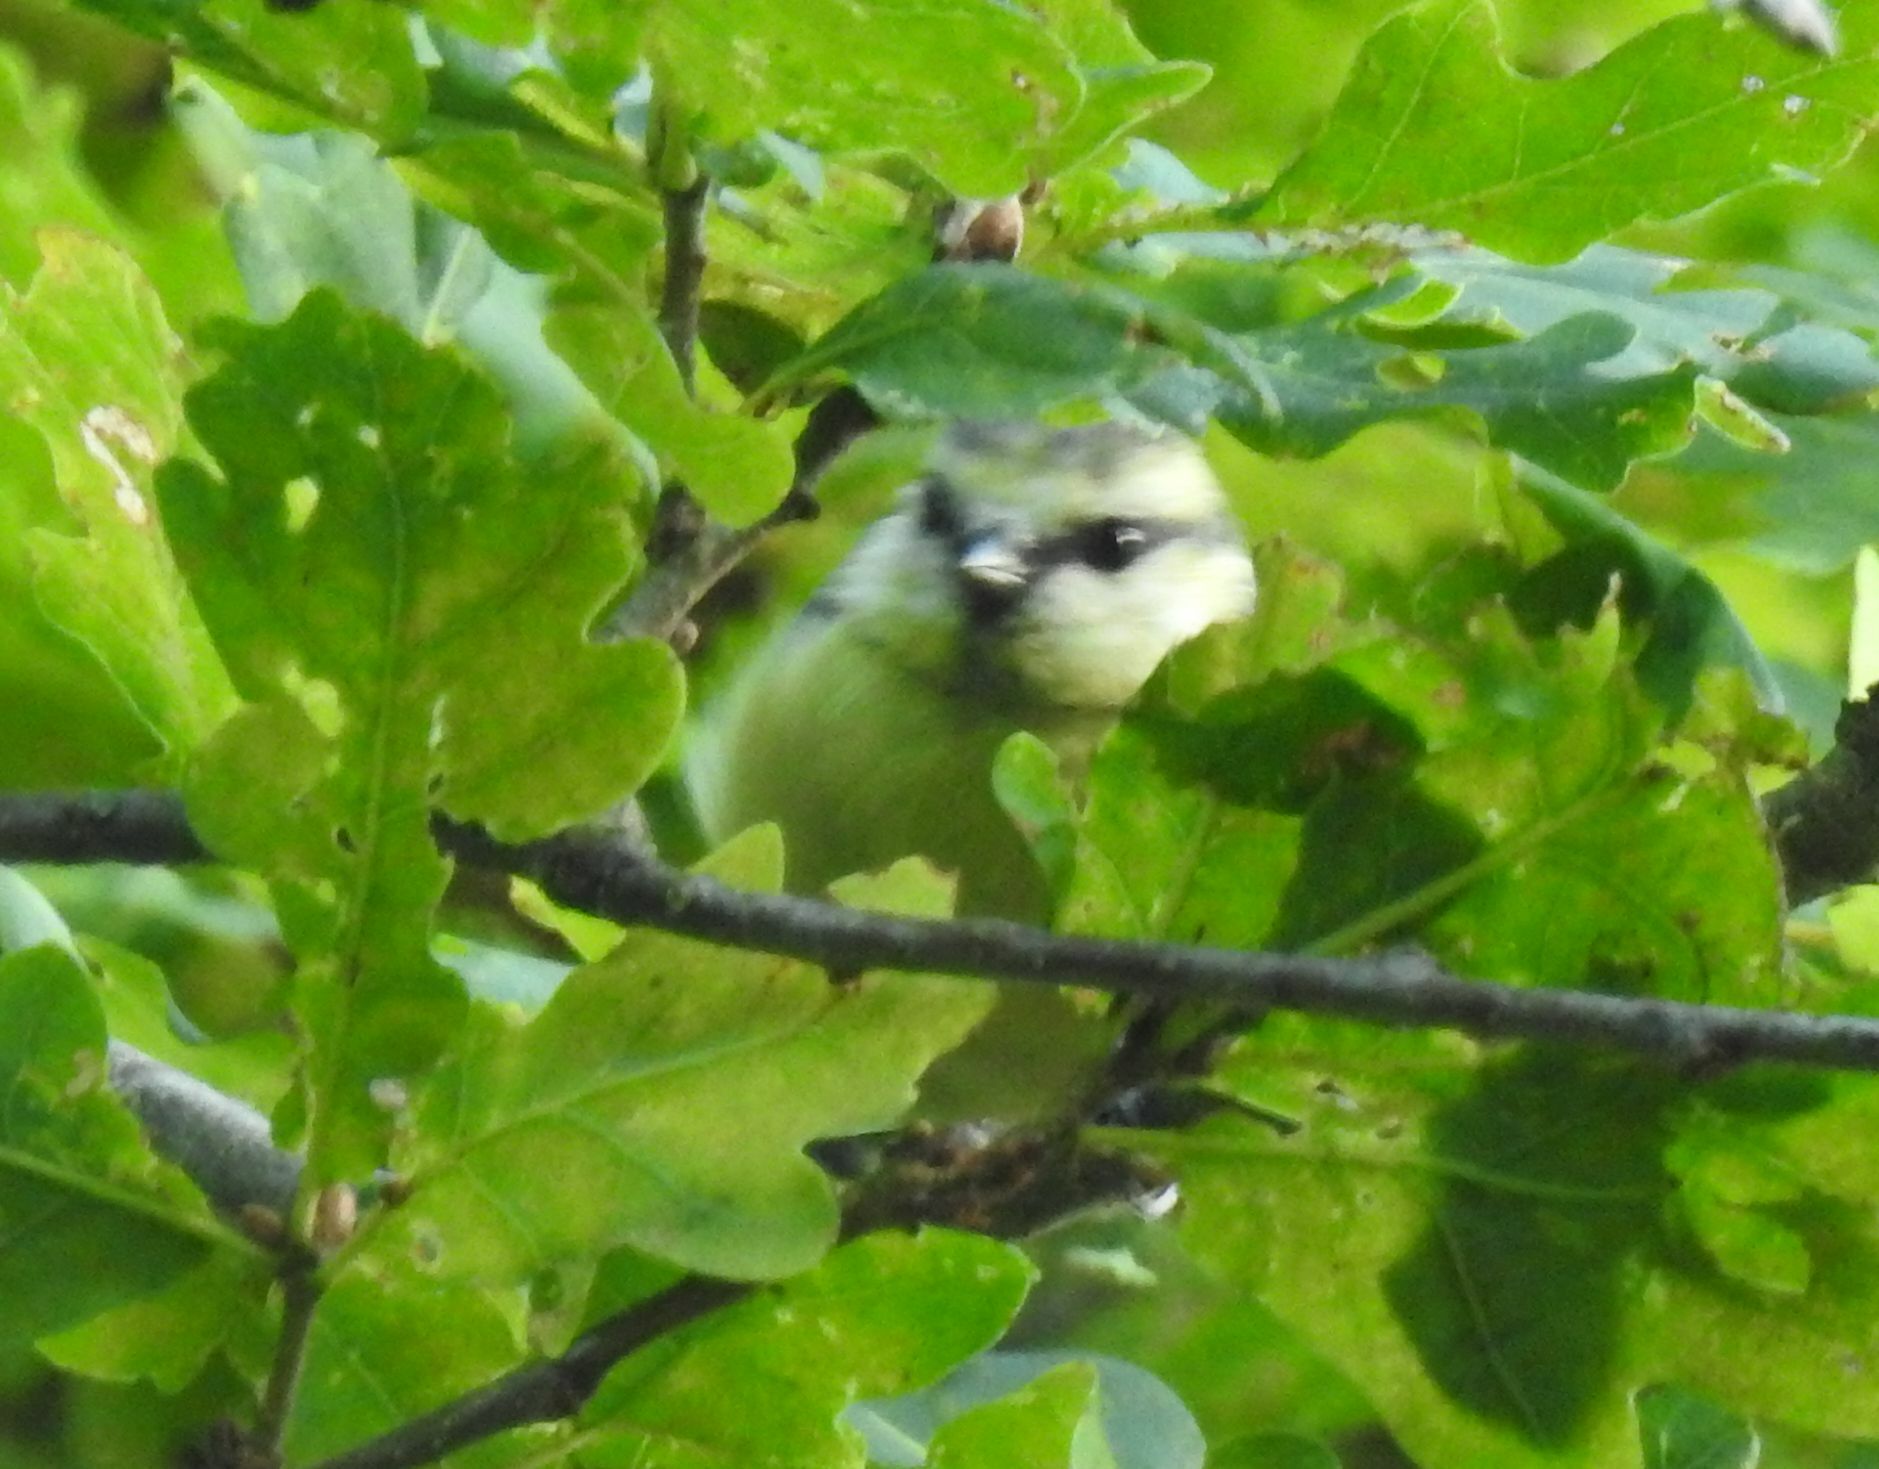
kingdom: Animalia
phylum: Chordata
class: Aves
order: Passeriformes
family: Paridae
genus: Cyanistes
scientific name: Cyanistes caeruleus
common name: Eurasian blue tit
